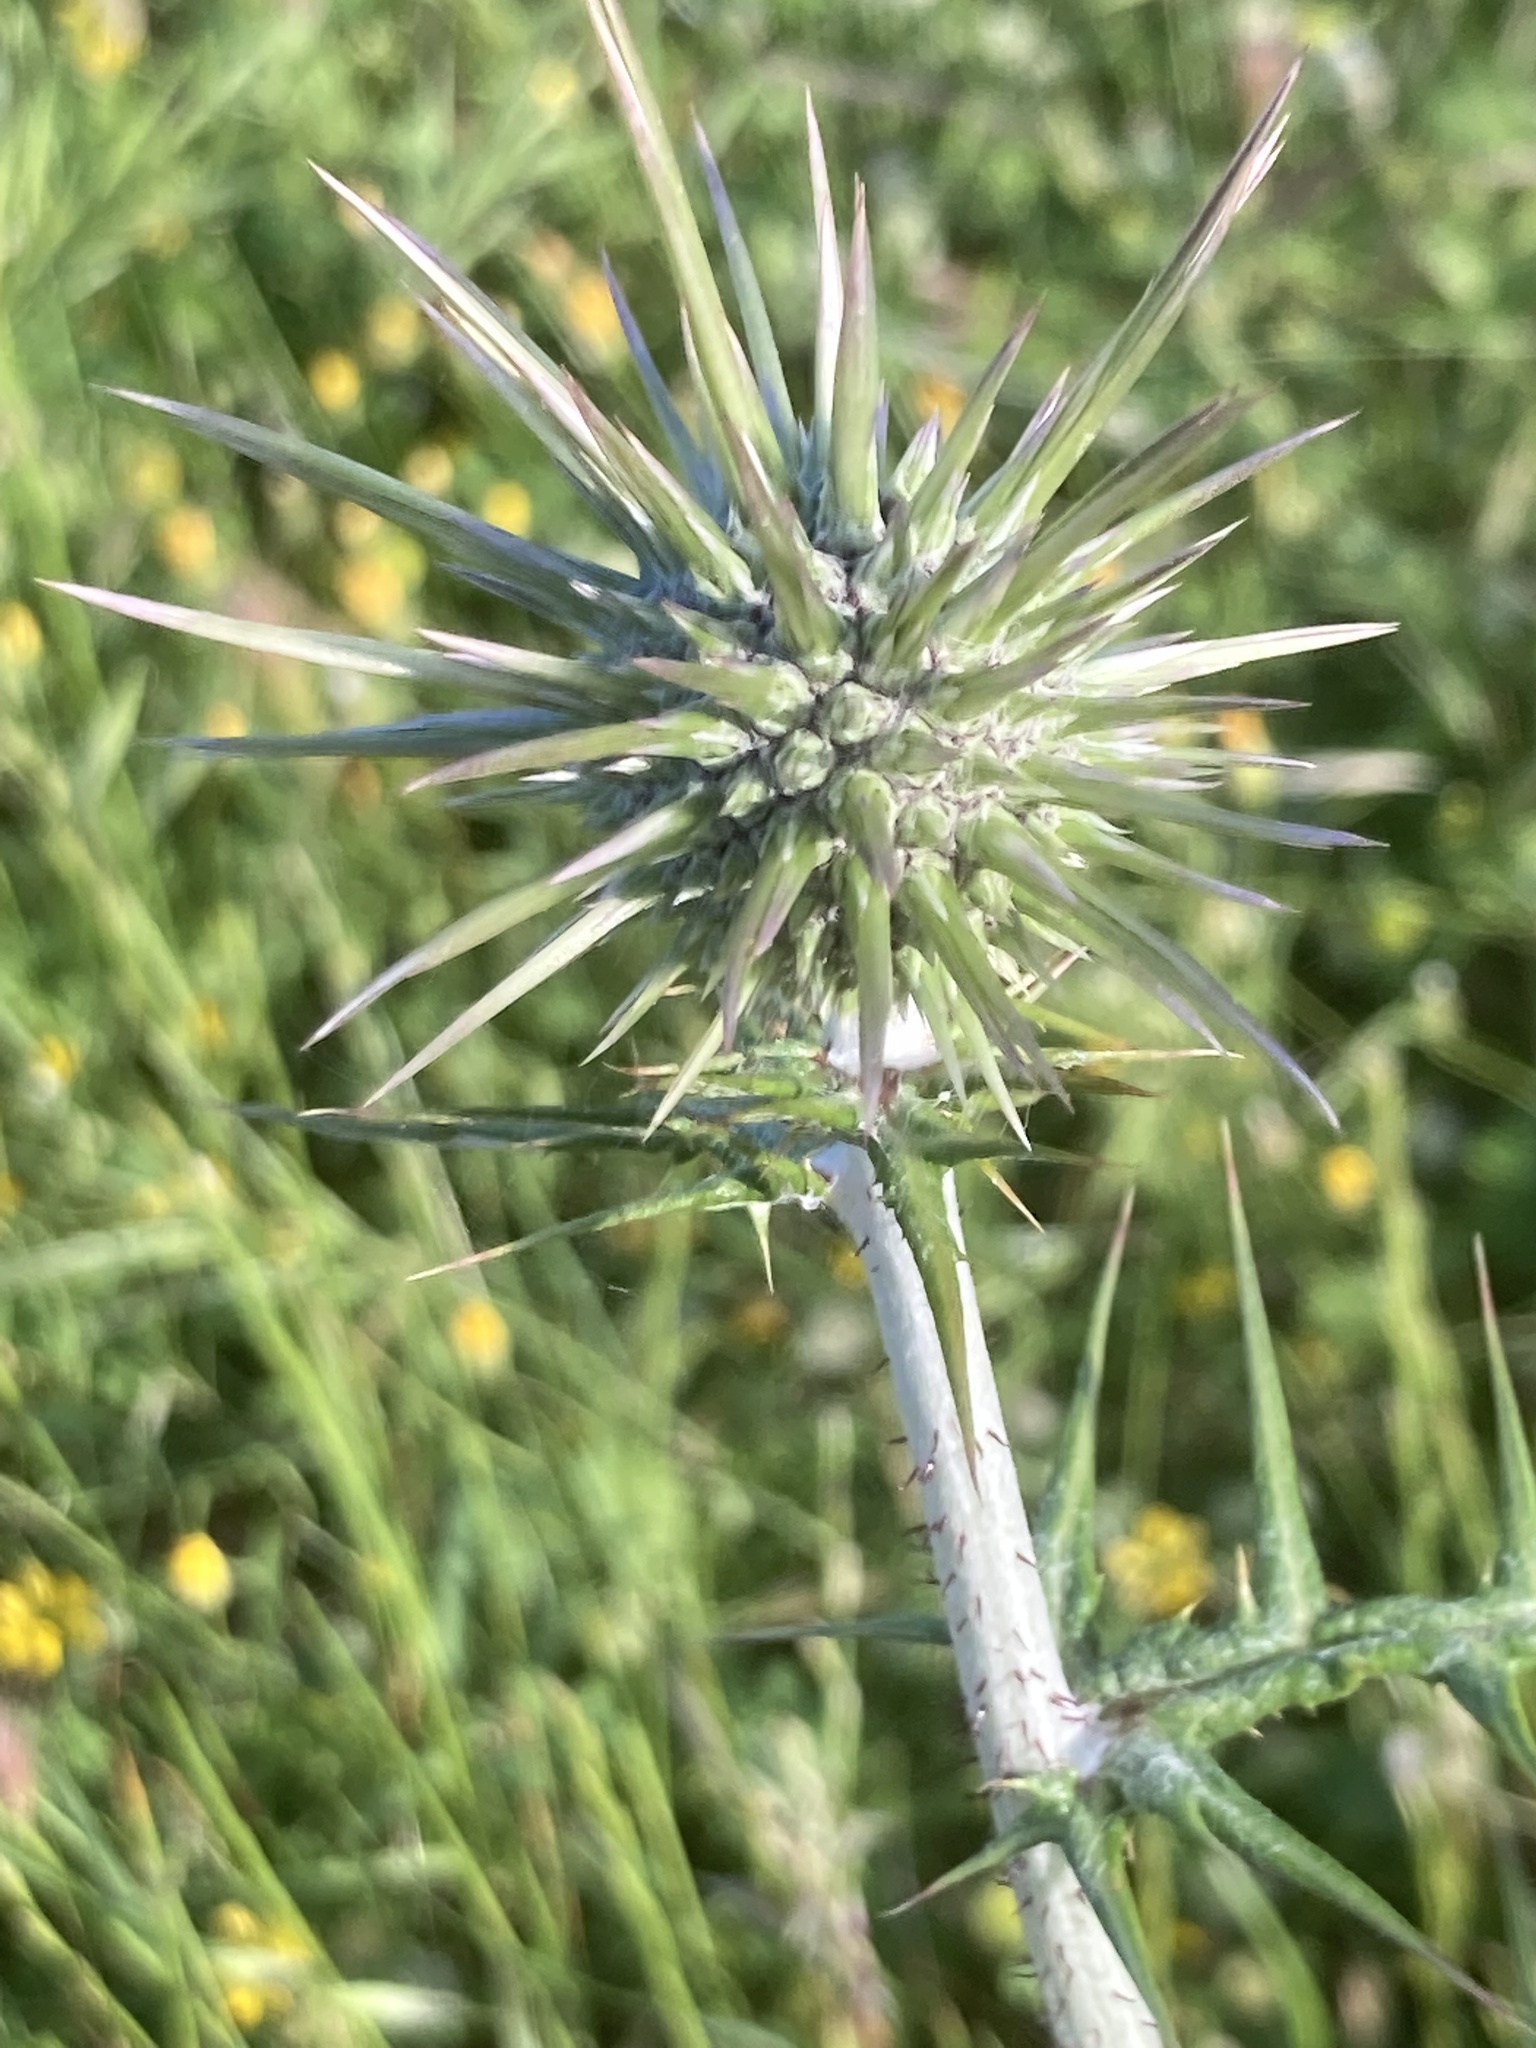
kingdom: Plantae
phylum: Tracheophyta
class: Magnoliopsida
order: Asterales
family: Asteraceae
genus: Echinops
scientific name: Echinops spinosissimus
